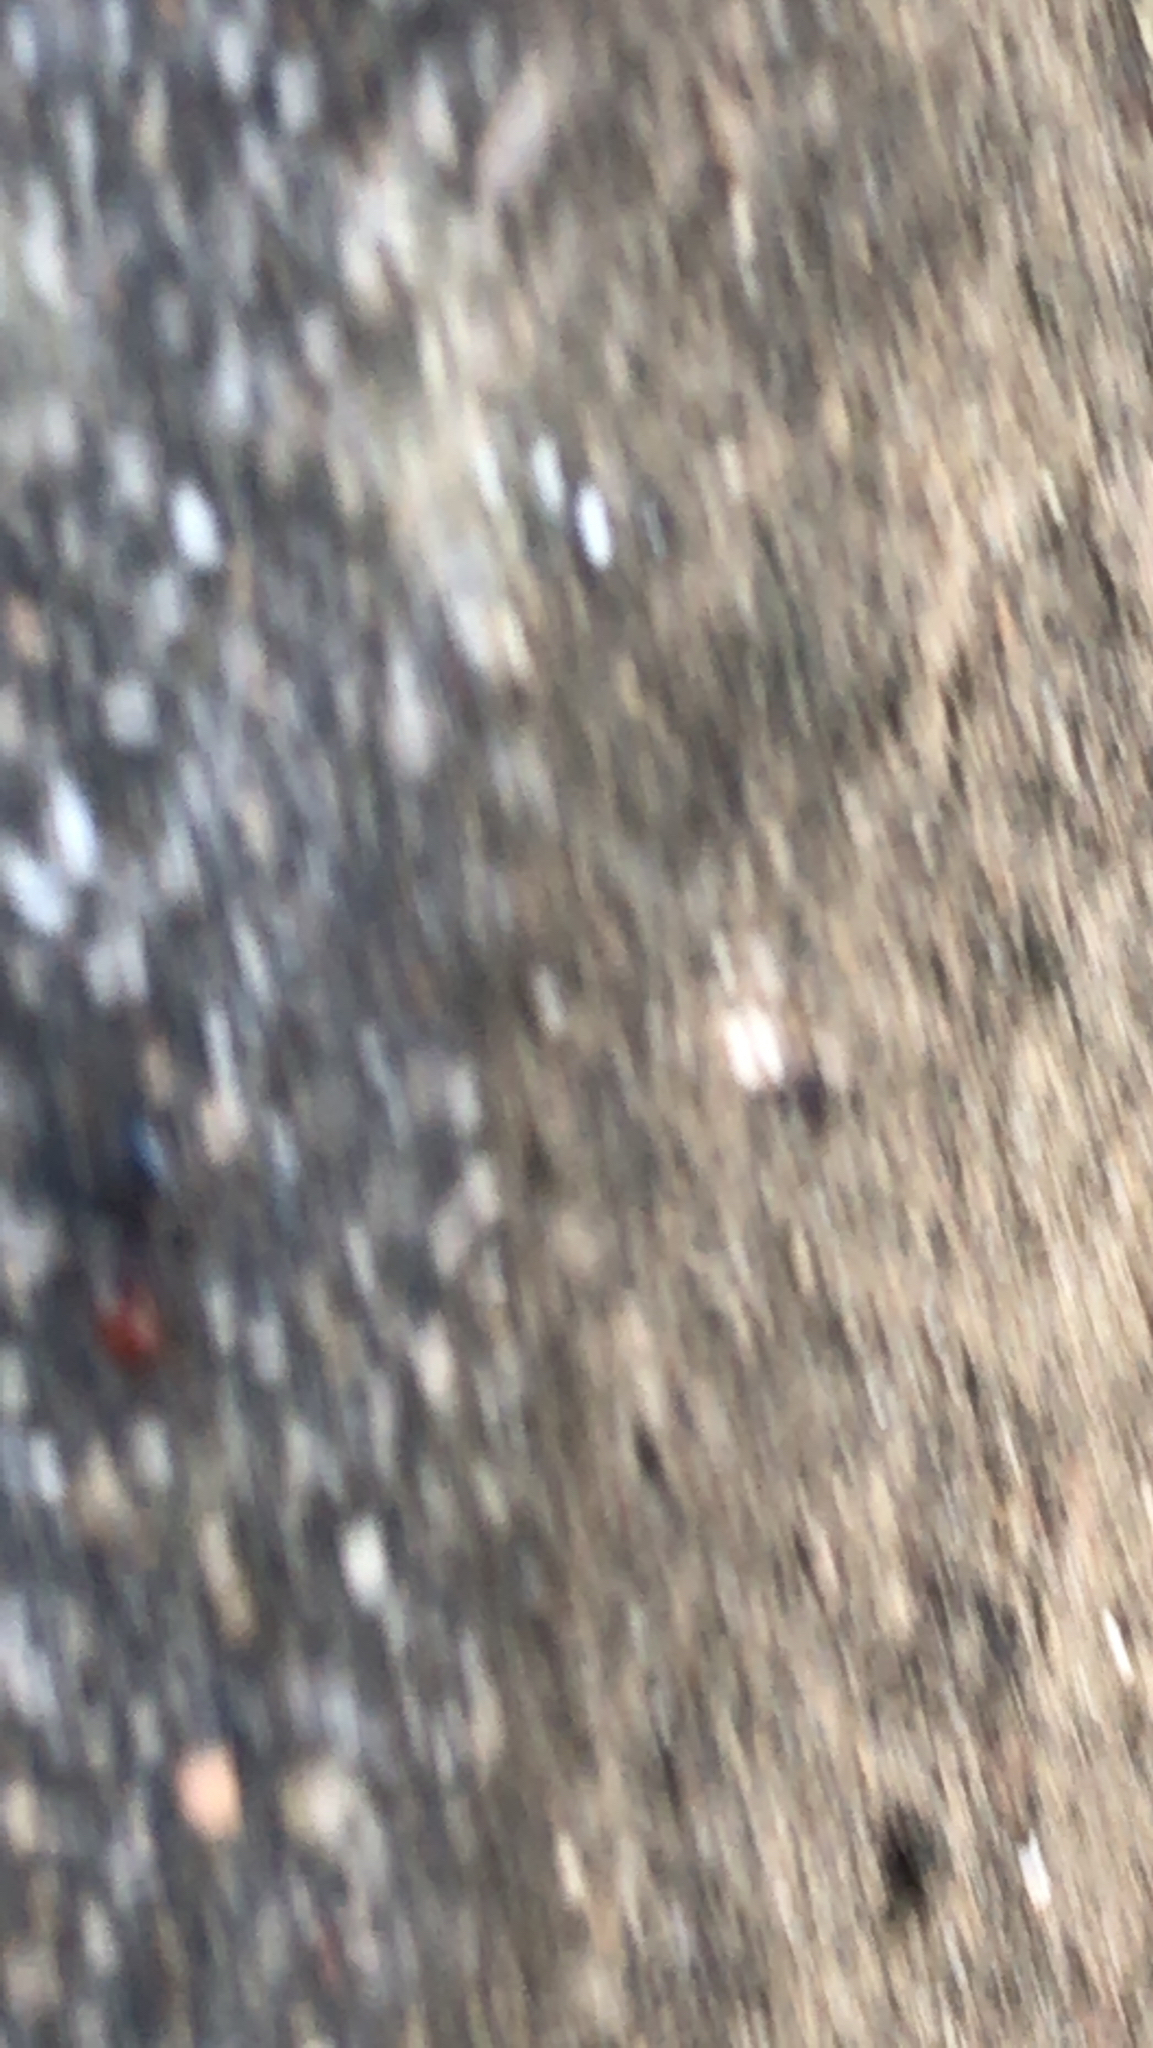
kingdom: Animalia
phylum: Arthropoda
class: Insecta
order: Hymenoptera
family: Formicidae
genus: Crematogaster
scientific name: Crematogaster scutellaris
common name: Fourmi du liège
